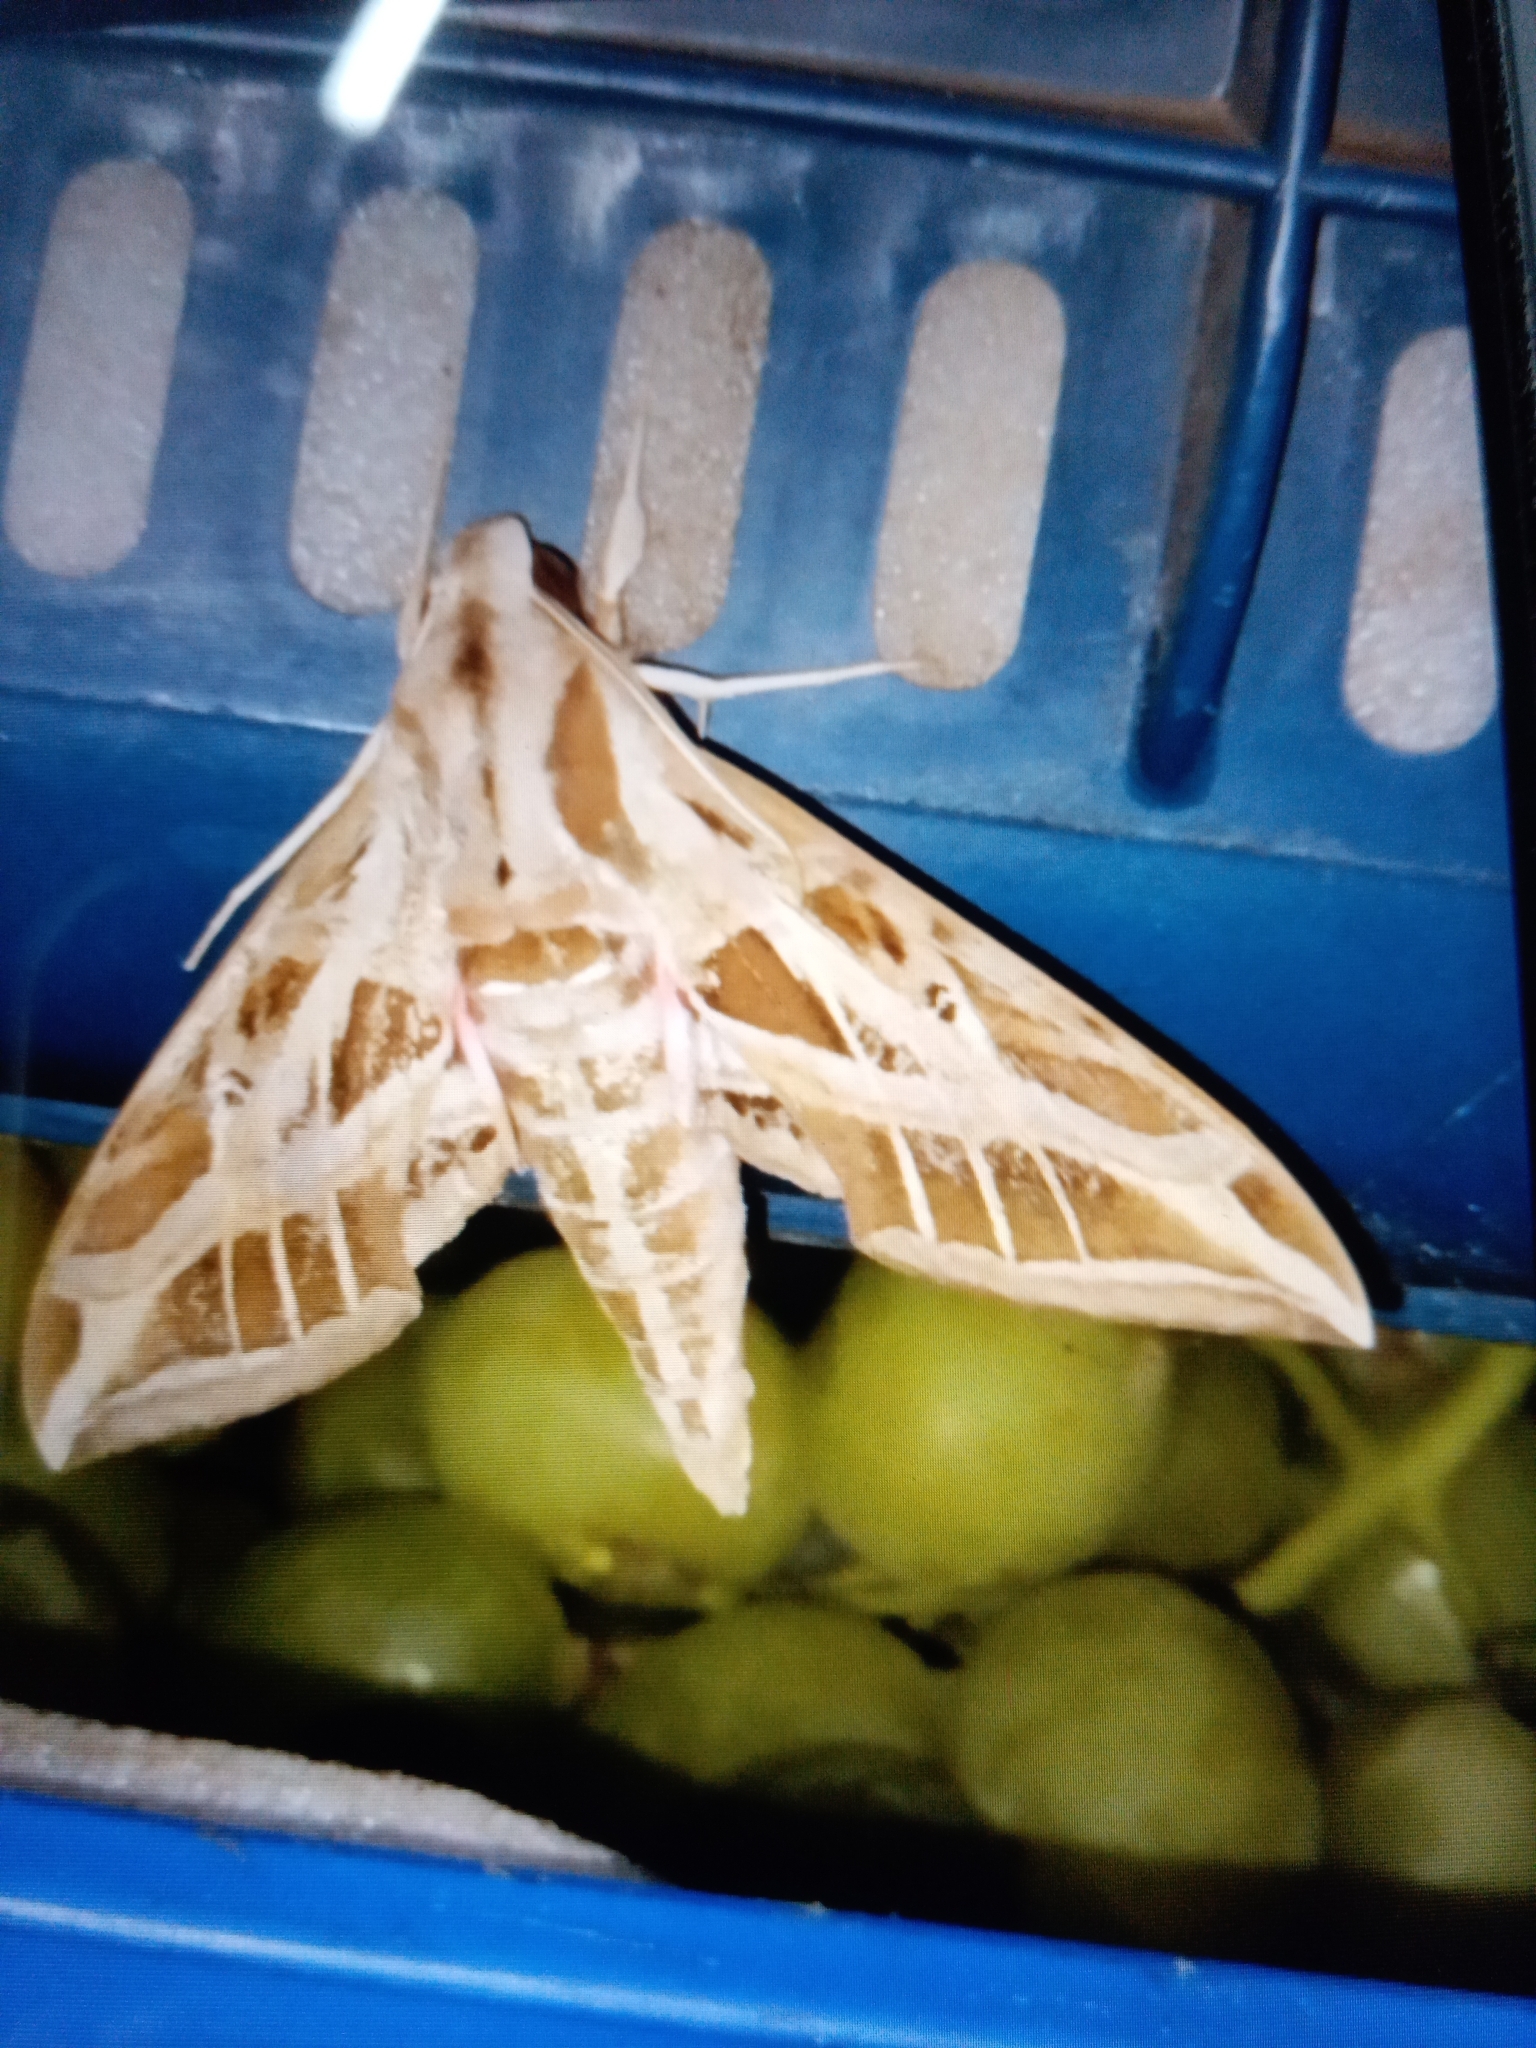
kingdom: Animalia
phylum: Arthropoda
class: Insecta
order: Lepidoptera
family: Sphingidae
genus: Eumorpha
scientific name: Eumorpha vitis
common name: Vine sphinx
